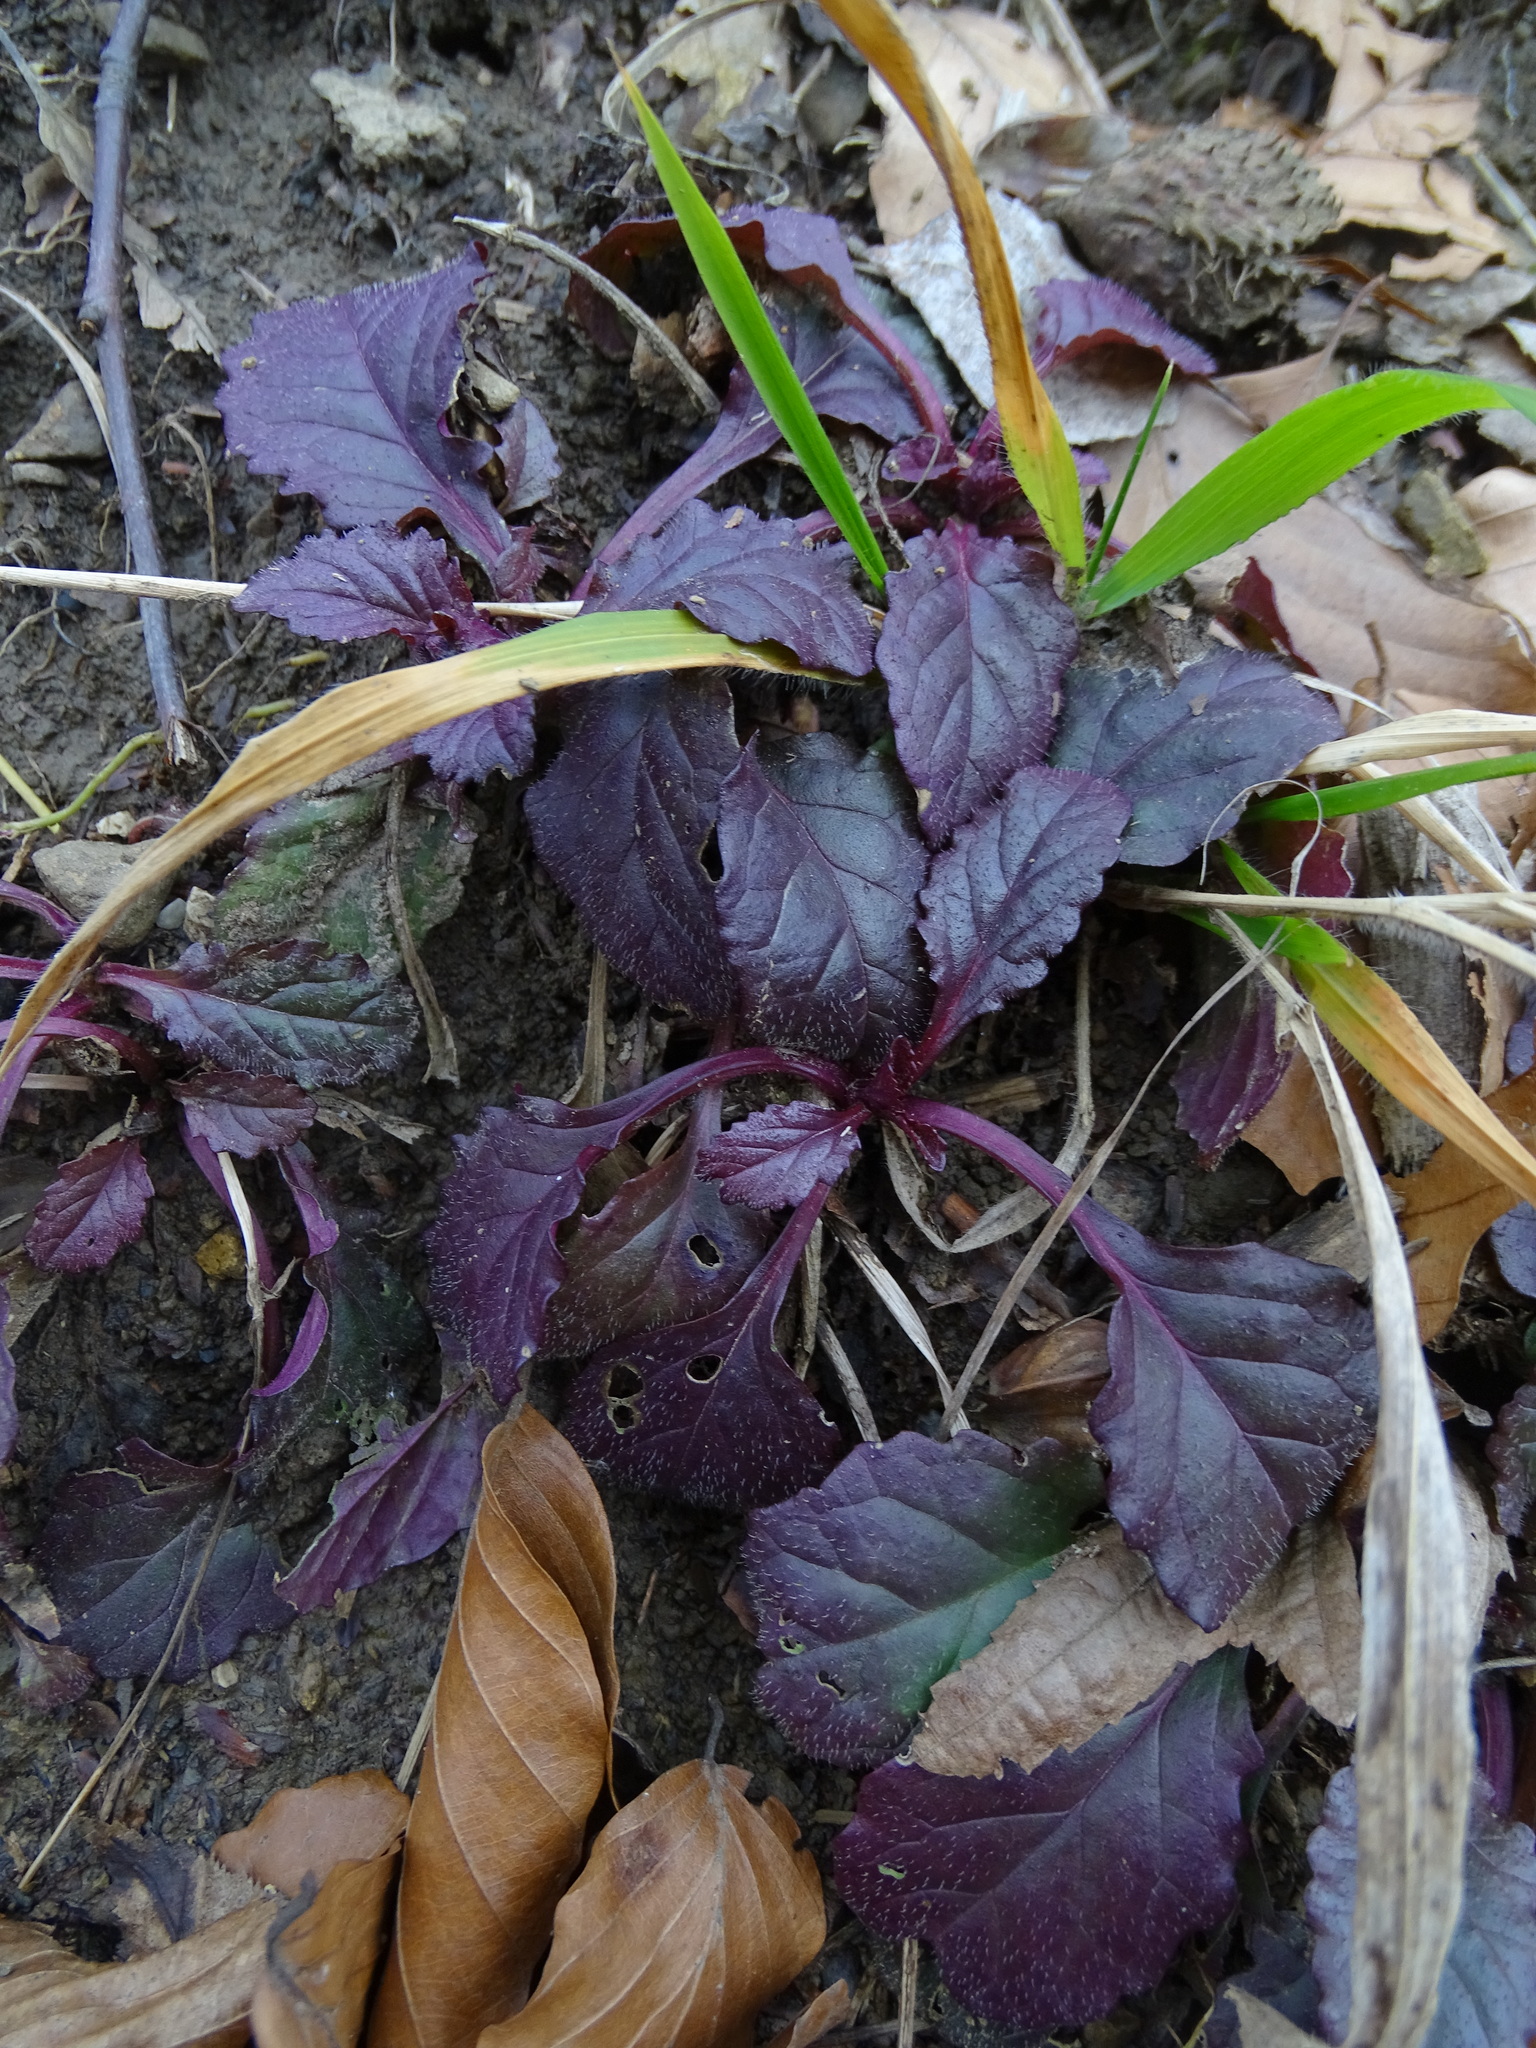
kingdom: Plantae
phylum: Tracheophyta
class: Magnoliopsida
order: Lamiales
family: Lamiaceae
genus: Ajuga
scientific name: Ajuga reptans
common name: Bugle
